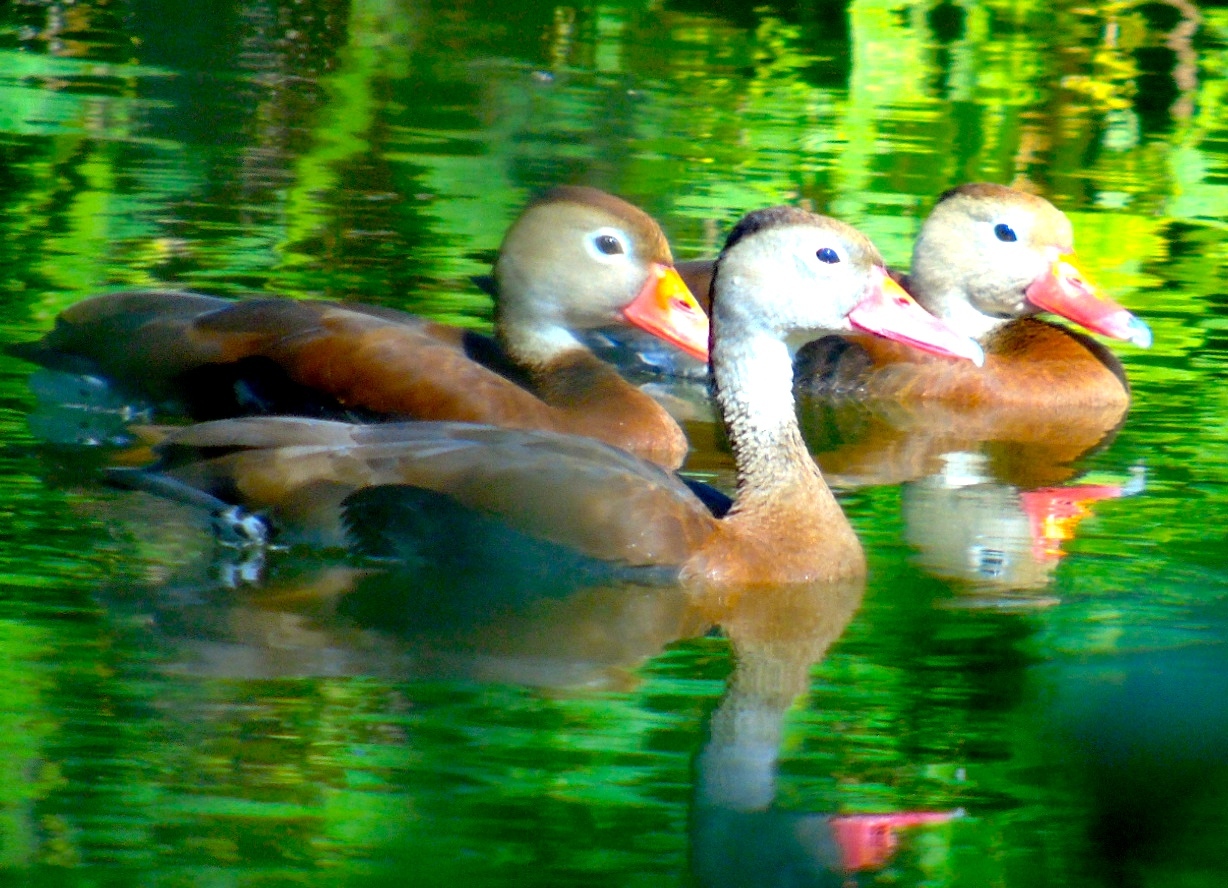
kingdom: Animalia
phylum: Chordata
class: Aves
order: Anseriformes
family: Anatidae
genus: Dendrocygna
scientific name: Dendrocygna autumnalis
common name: Black-bellied whistling duck
